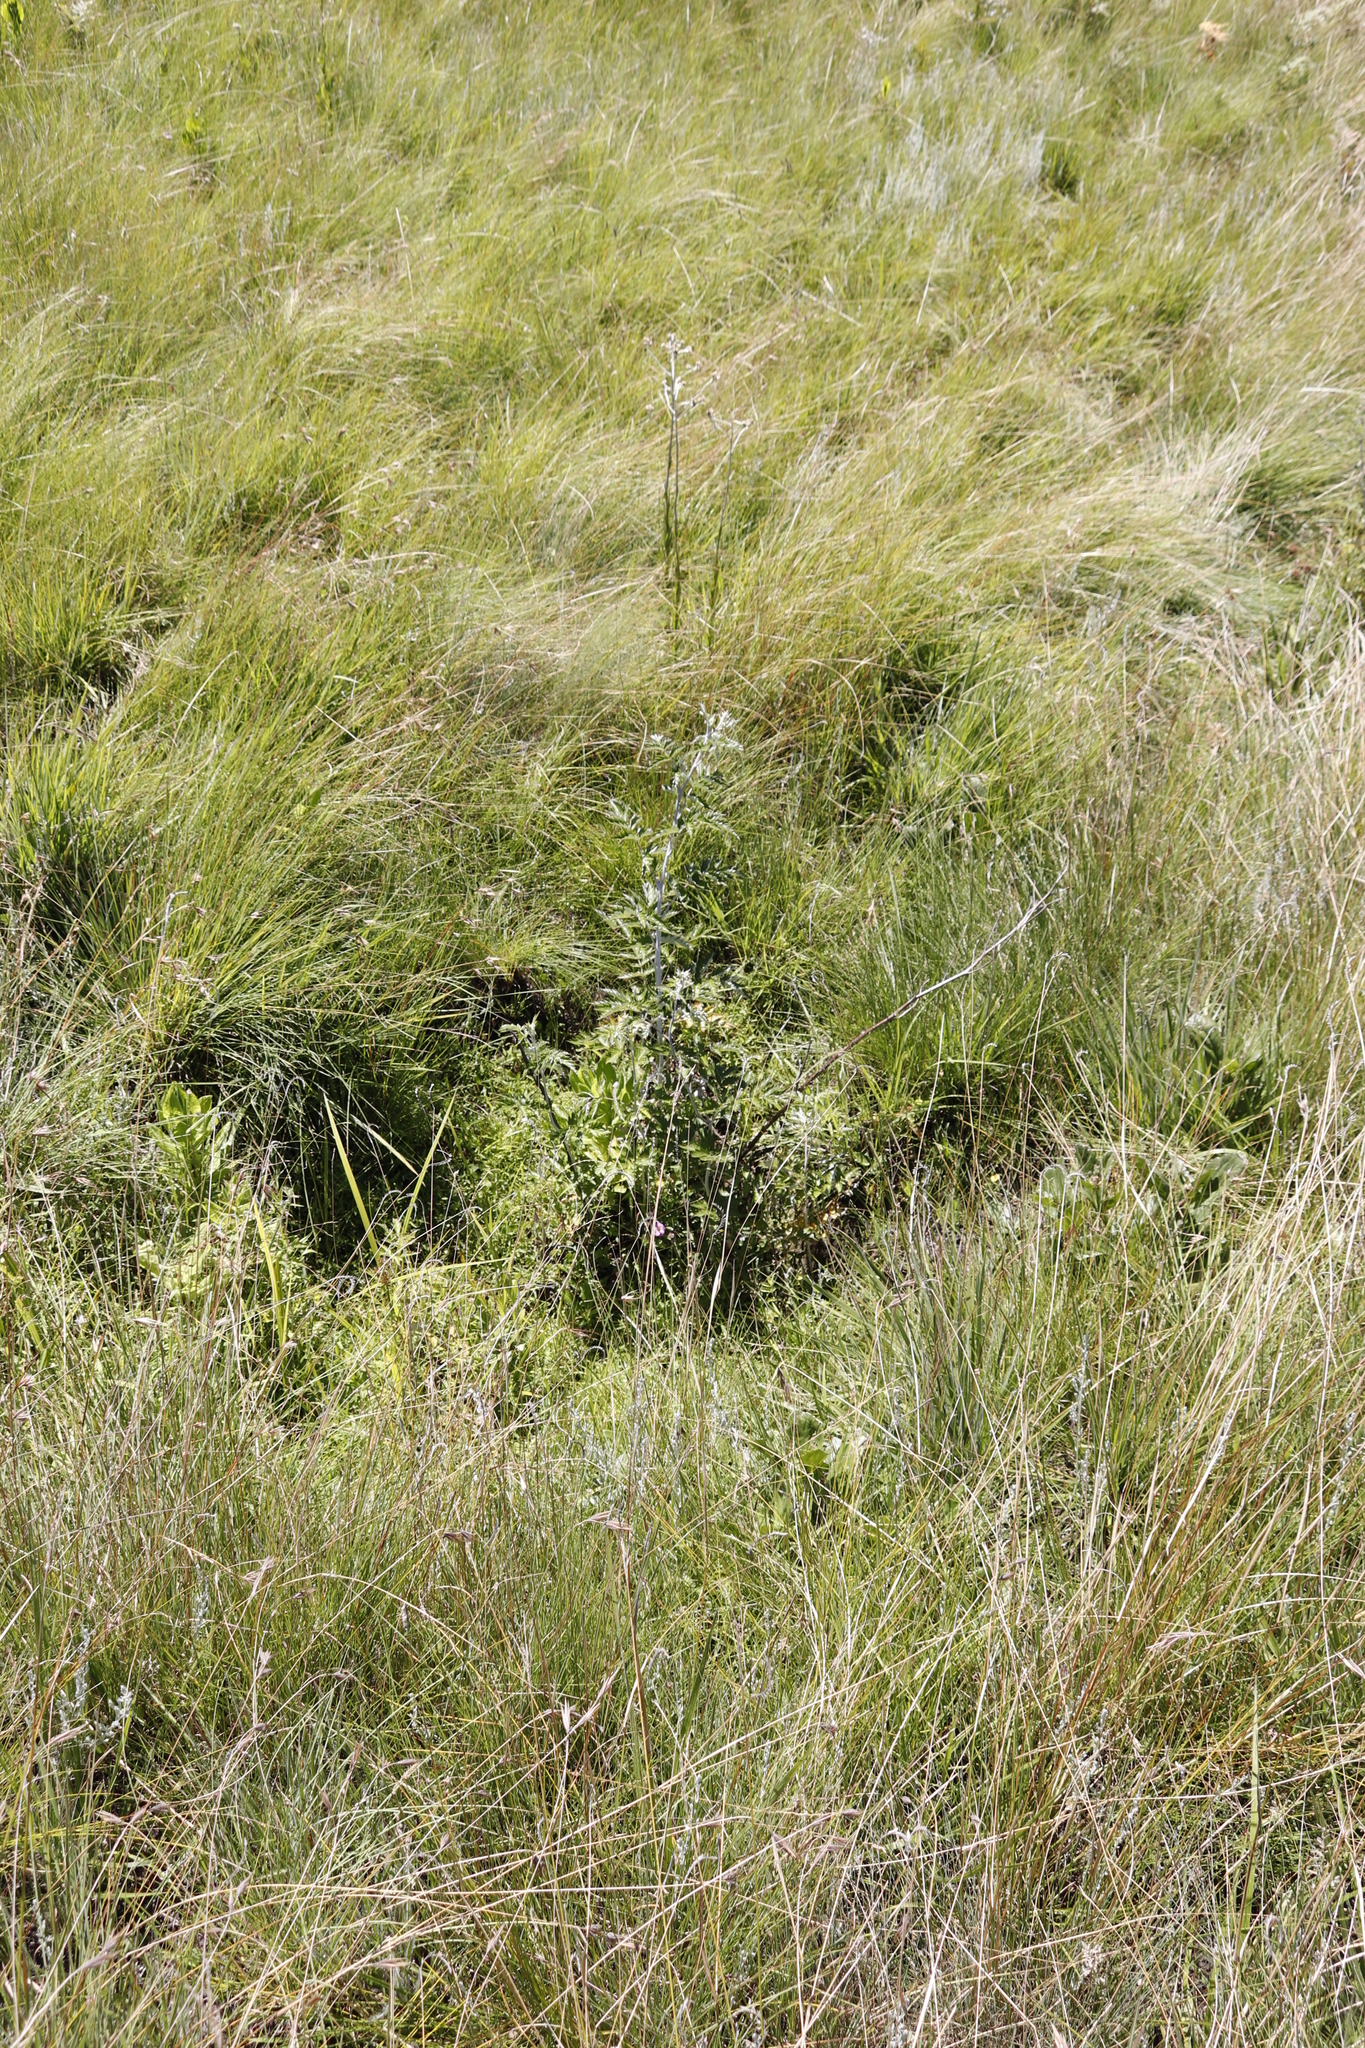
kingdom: Plantae
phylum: Tracheophyta
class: Magnoliopsida
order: Rosales
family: Rosaceae
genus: Rubus
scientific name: Rubus ludwigii
